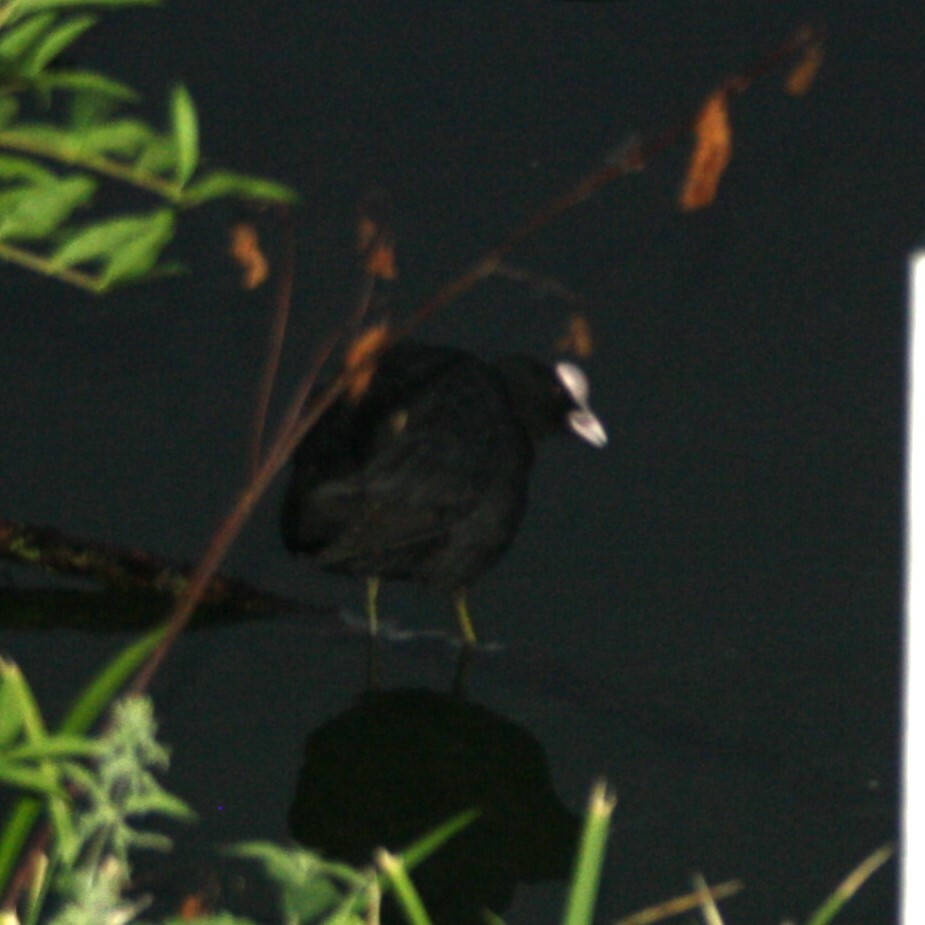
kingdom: Animalia
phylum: Chordata
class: Aves
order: Gruiformes
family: Rallidae
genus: Fulica
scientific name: Fulica atra
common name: Eurasian coot
